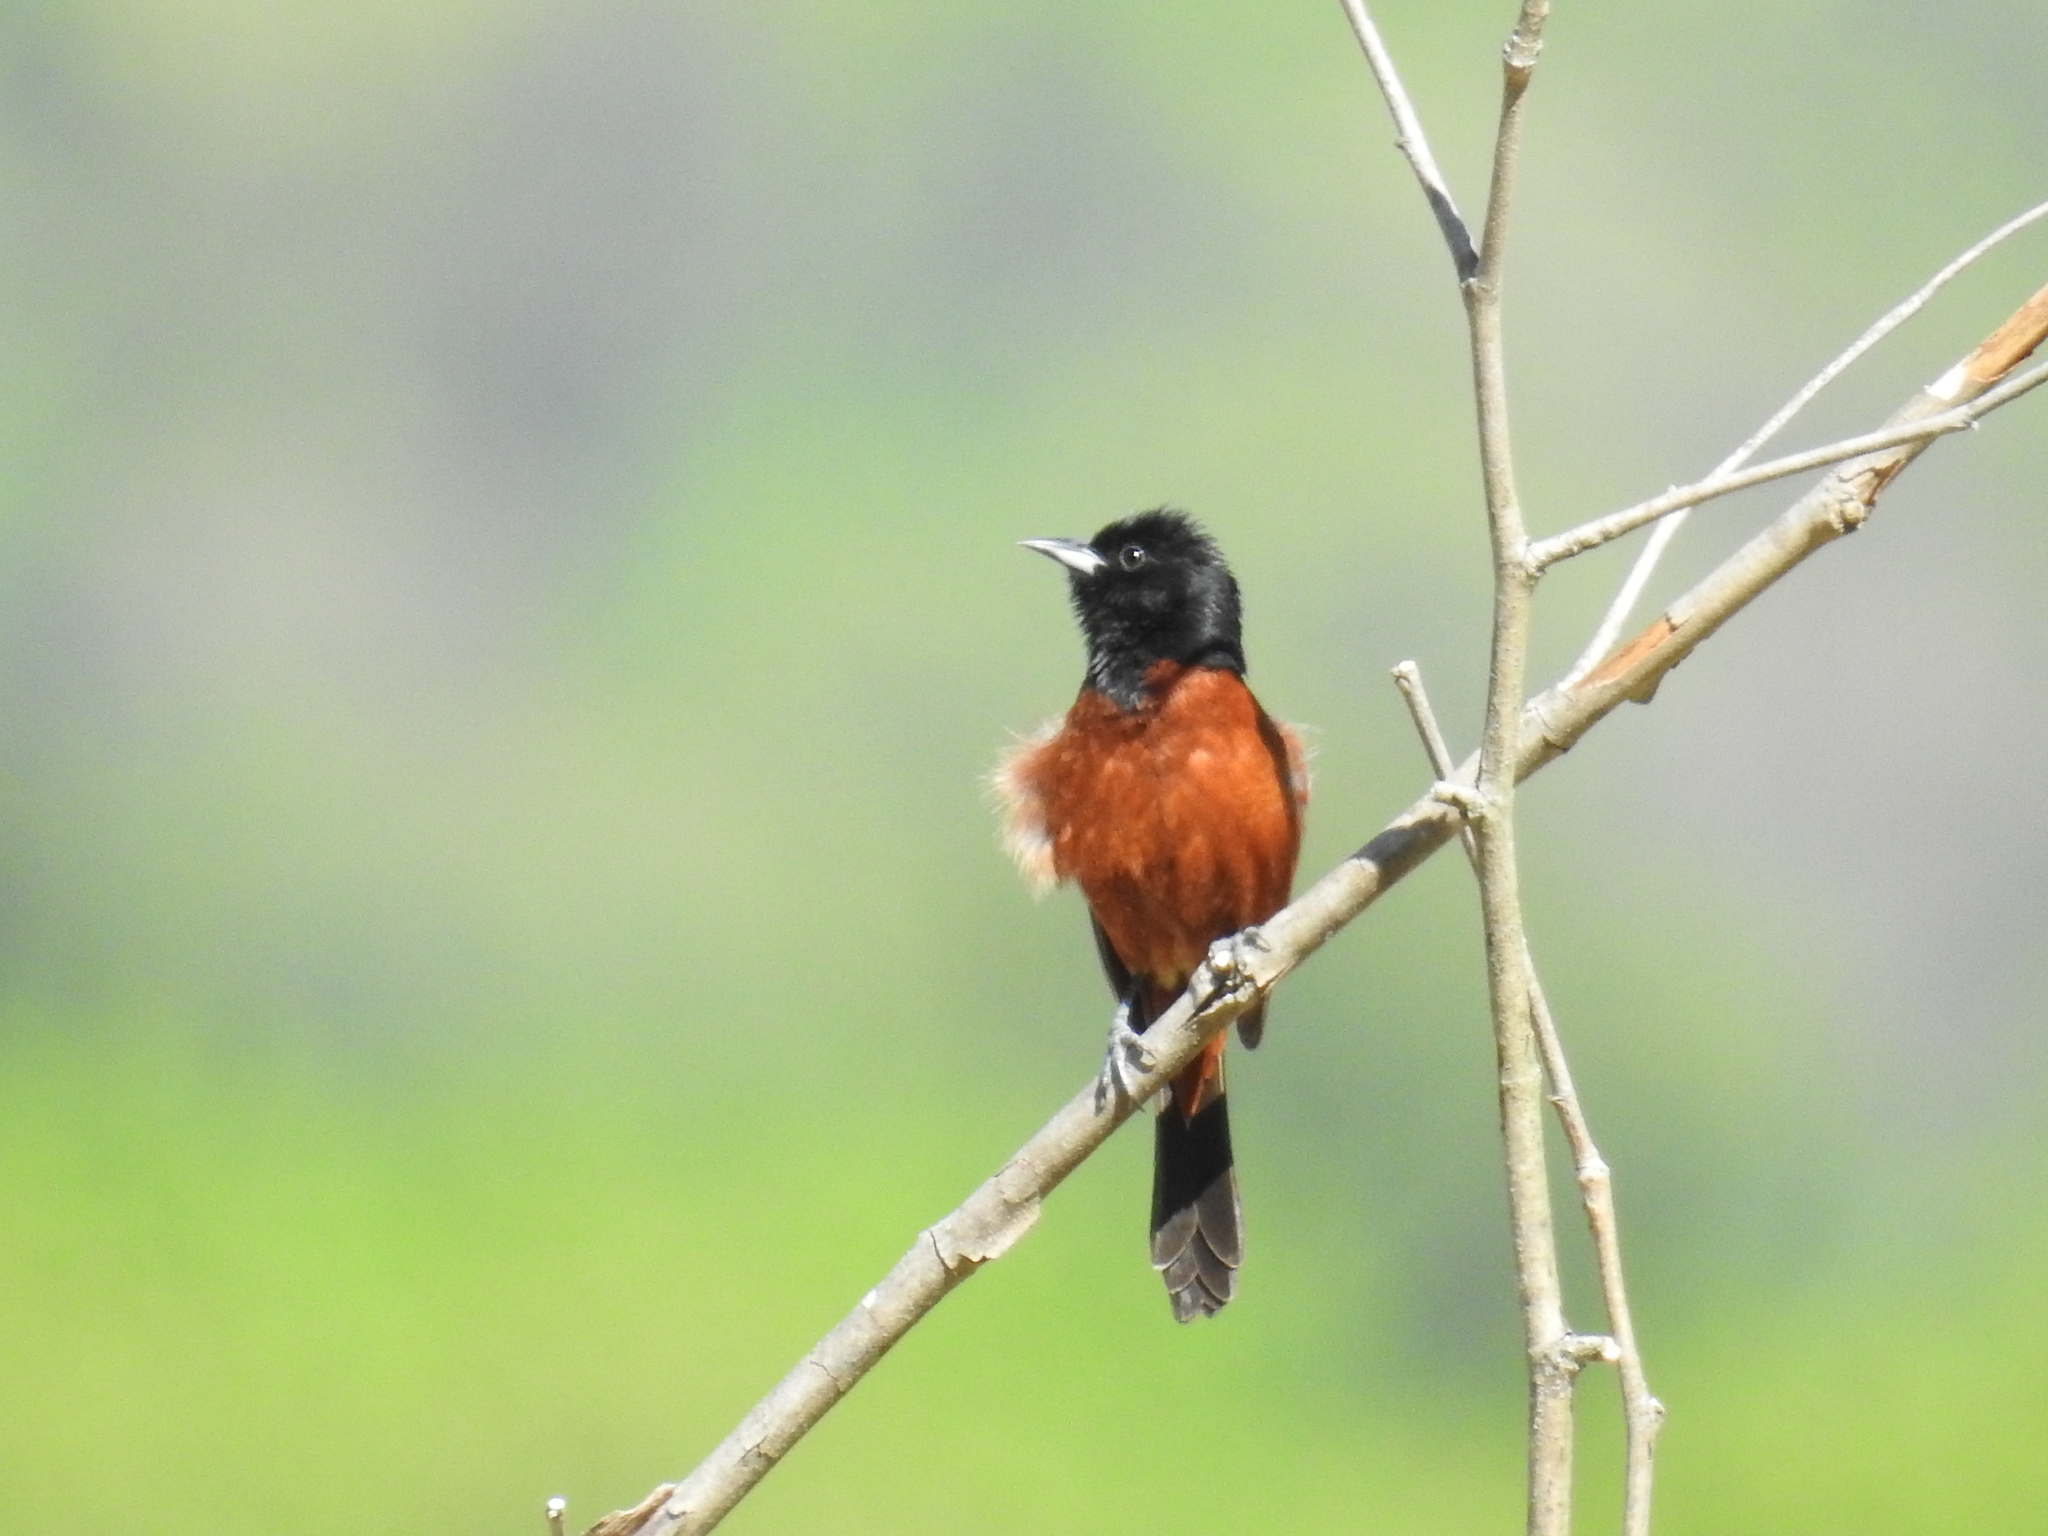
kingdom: Animalia
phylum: Chordata
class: Aves
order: Passeriformes
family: Icteridae
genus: Icterus
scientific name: Icterus spurius
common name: Orchard oriole
